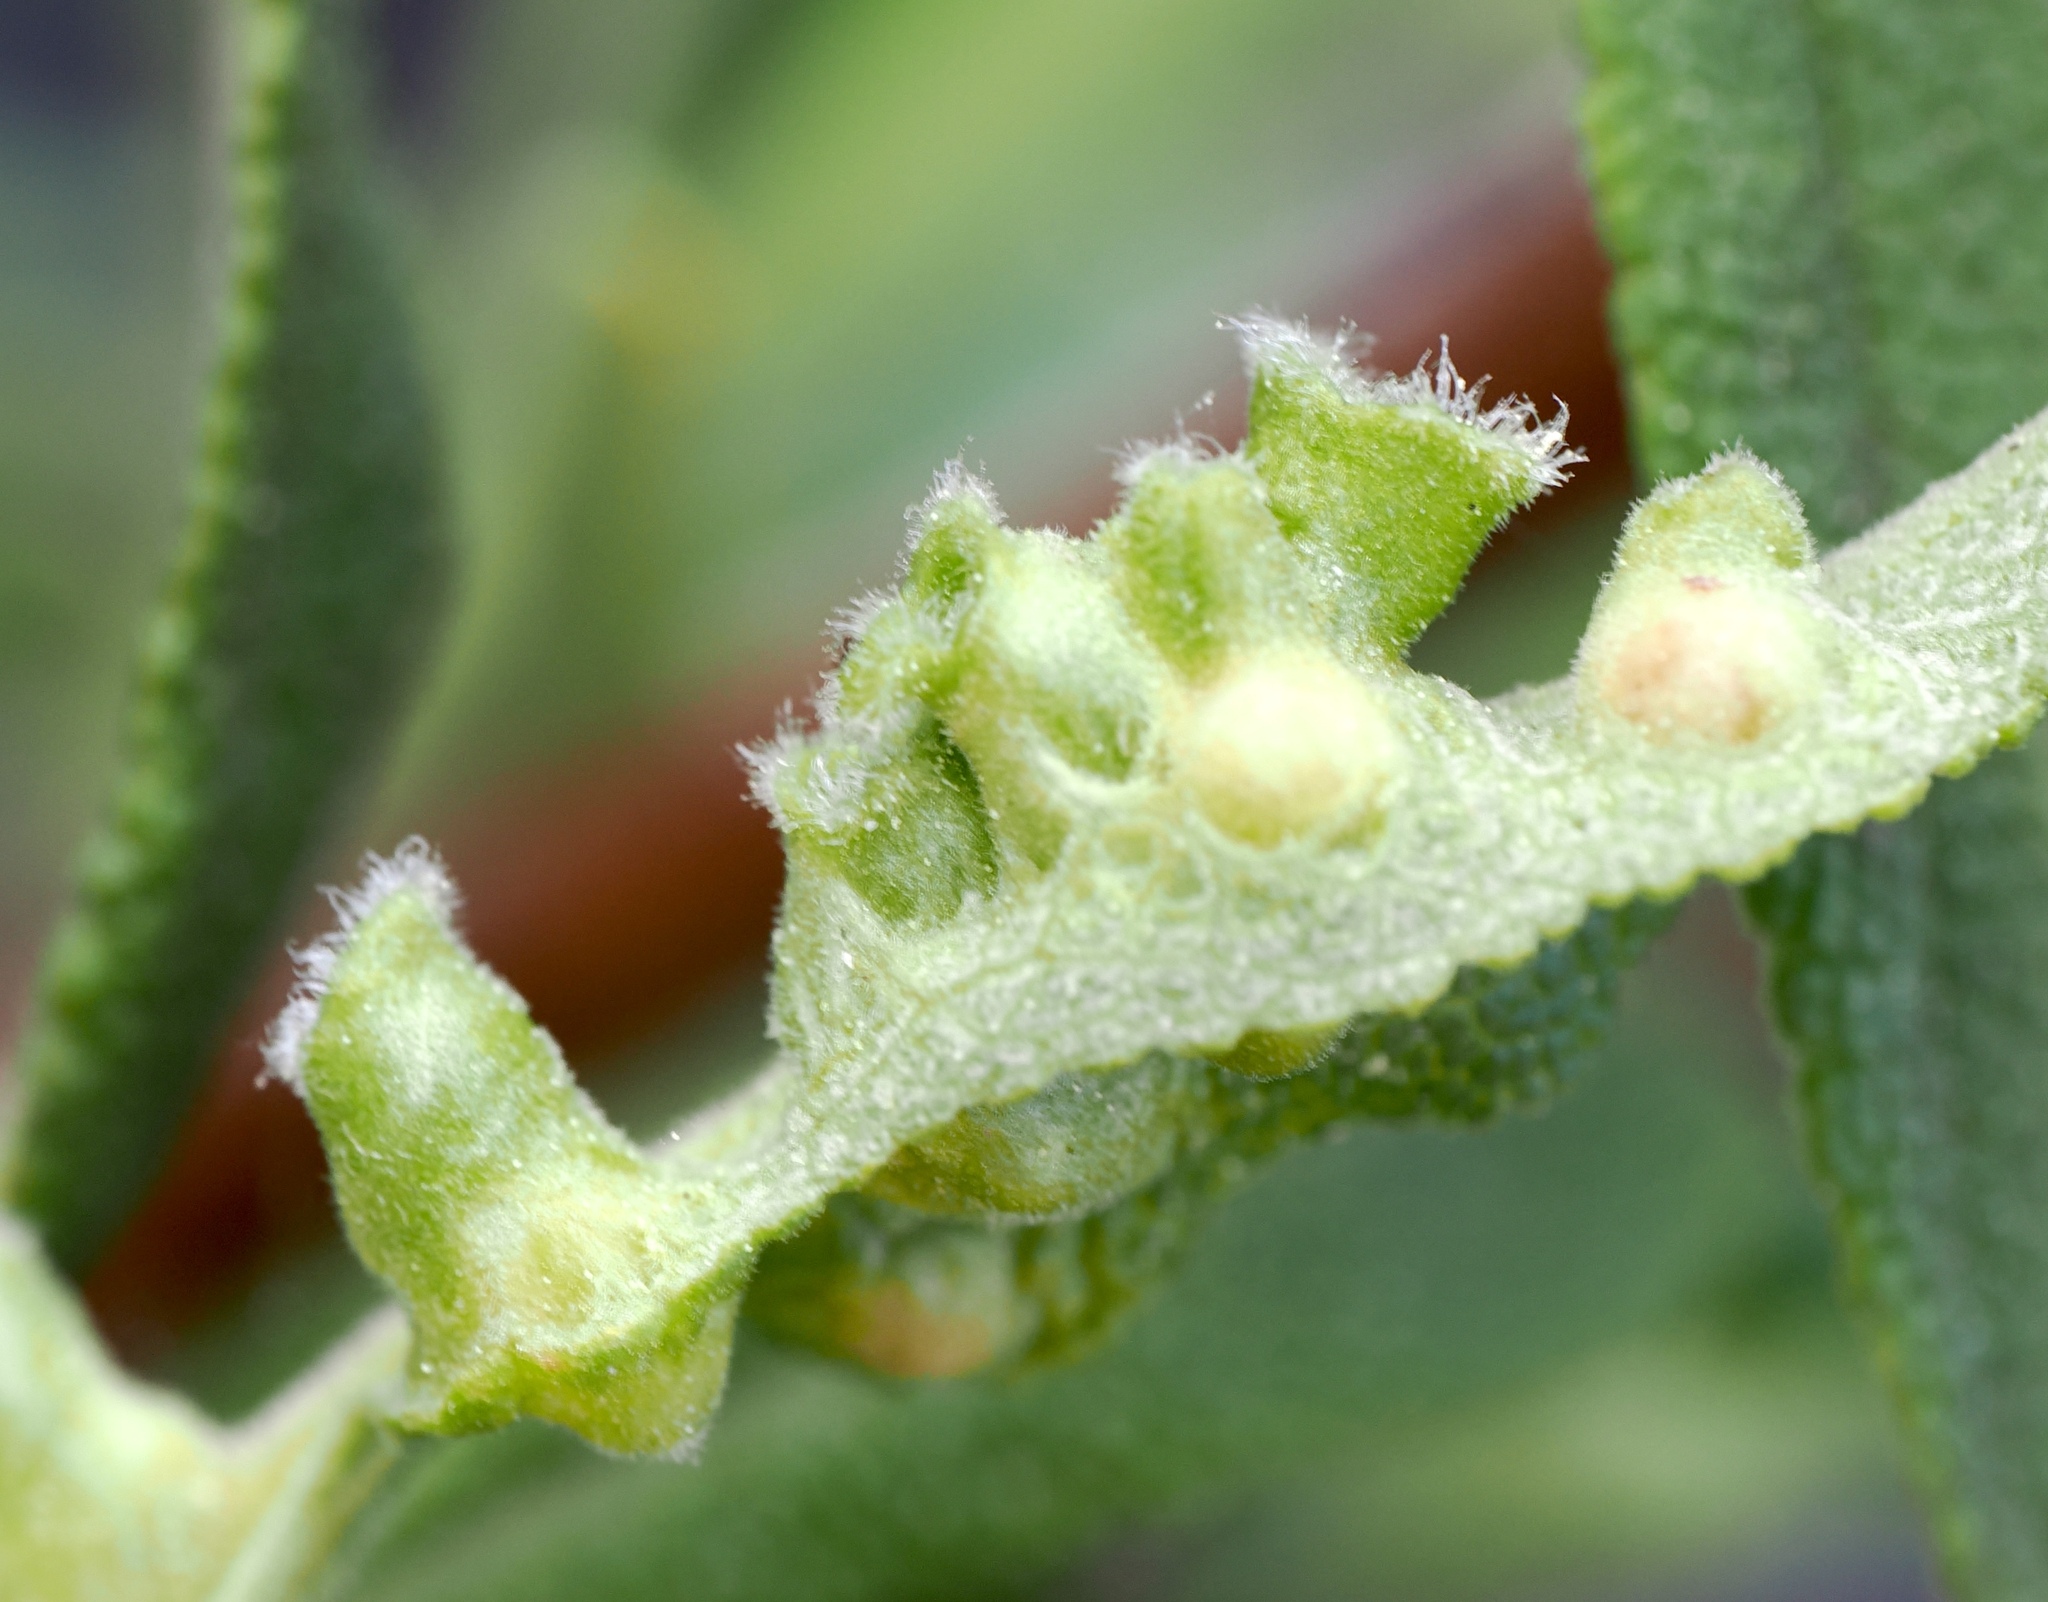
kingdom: Animalia
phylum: Arthropoda
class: Insecta
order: Diptera
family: Cecidomyiidae
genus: Rhopalomyia
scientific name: Rhopalomyia audibertiae
